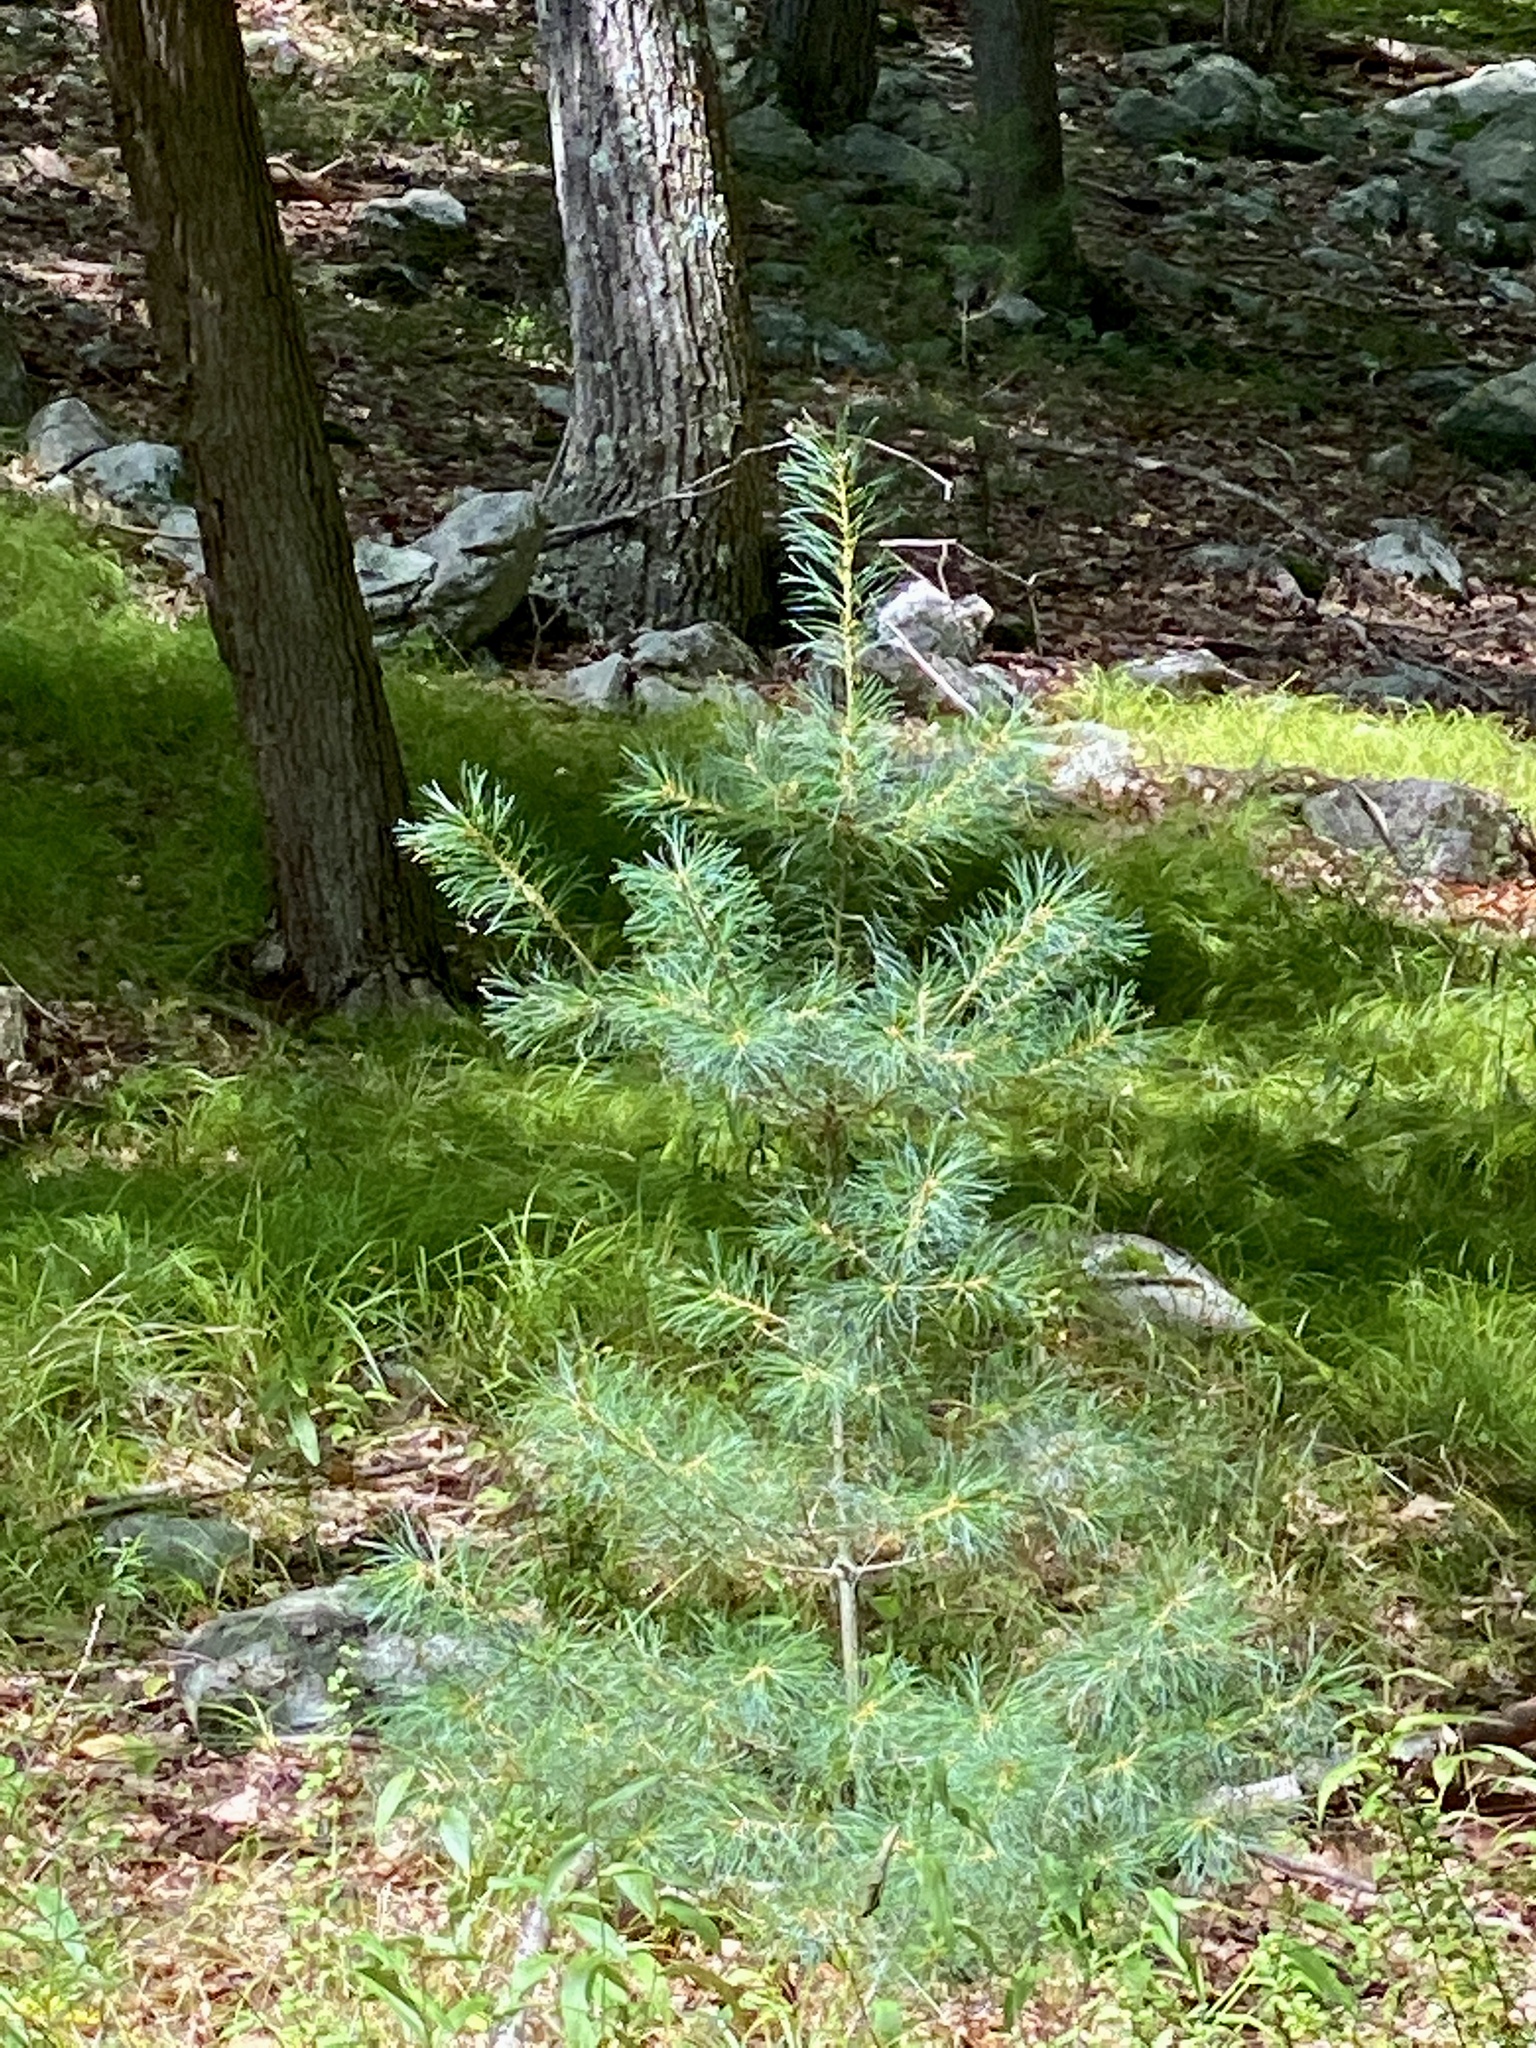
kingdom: Plantae
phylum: Tracheophyta
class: Pinopsida
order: Pinales
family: Pinaceae
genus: Pinus
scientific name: Pinus strobus
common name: Weymouth pine
